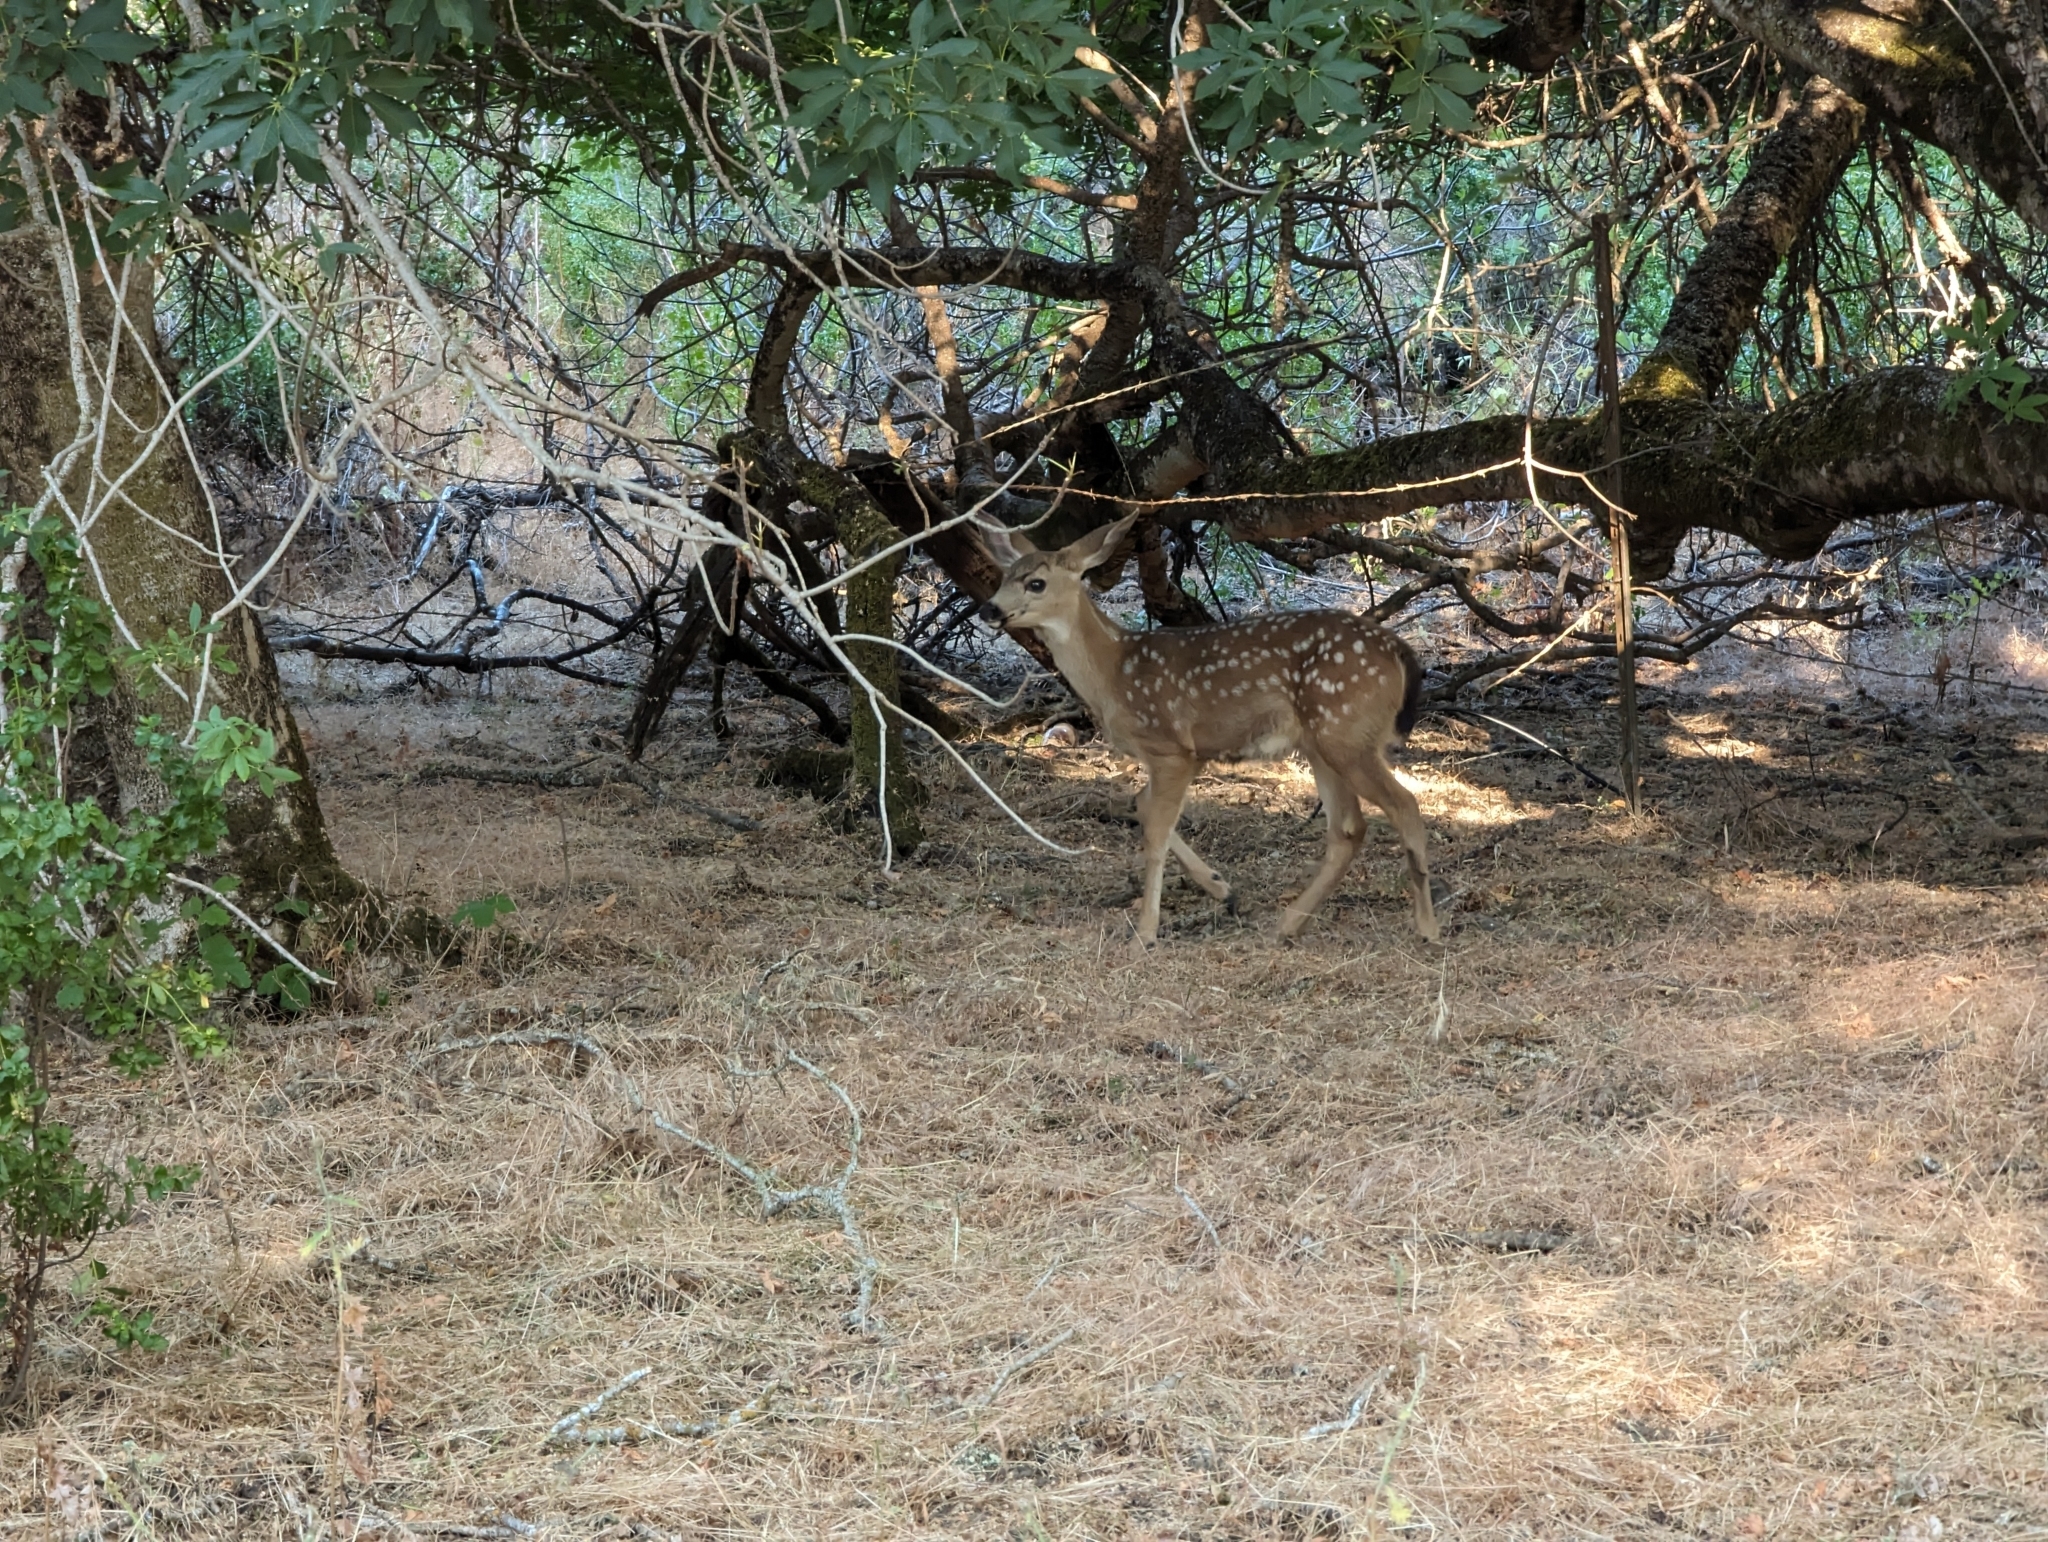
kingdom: Animalia
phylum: Chordata
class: Mammalia
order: Artiodactyla
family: Cervidae
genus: Odocoileus
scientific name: Odocoileus hemionus
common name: Mule deer
